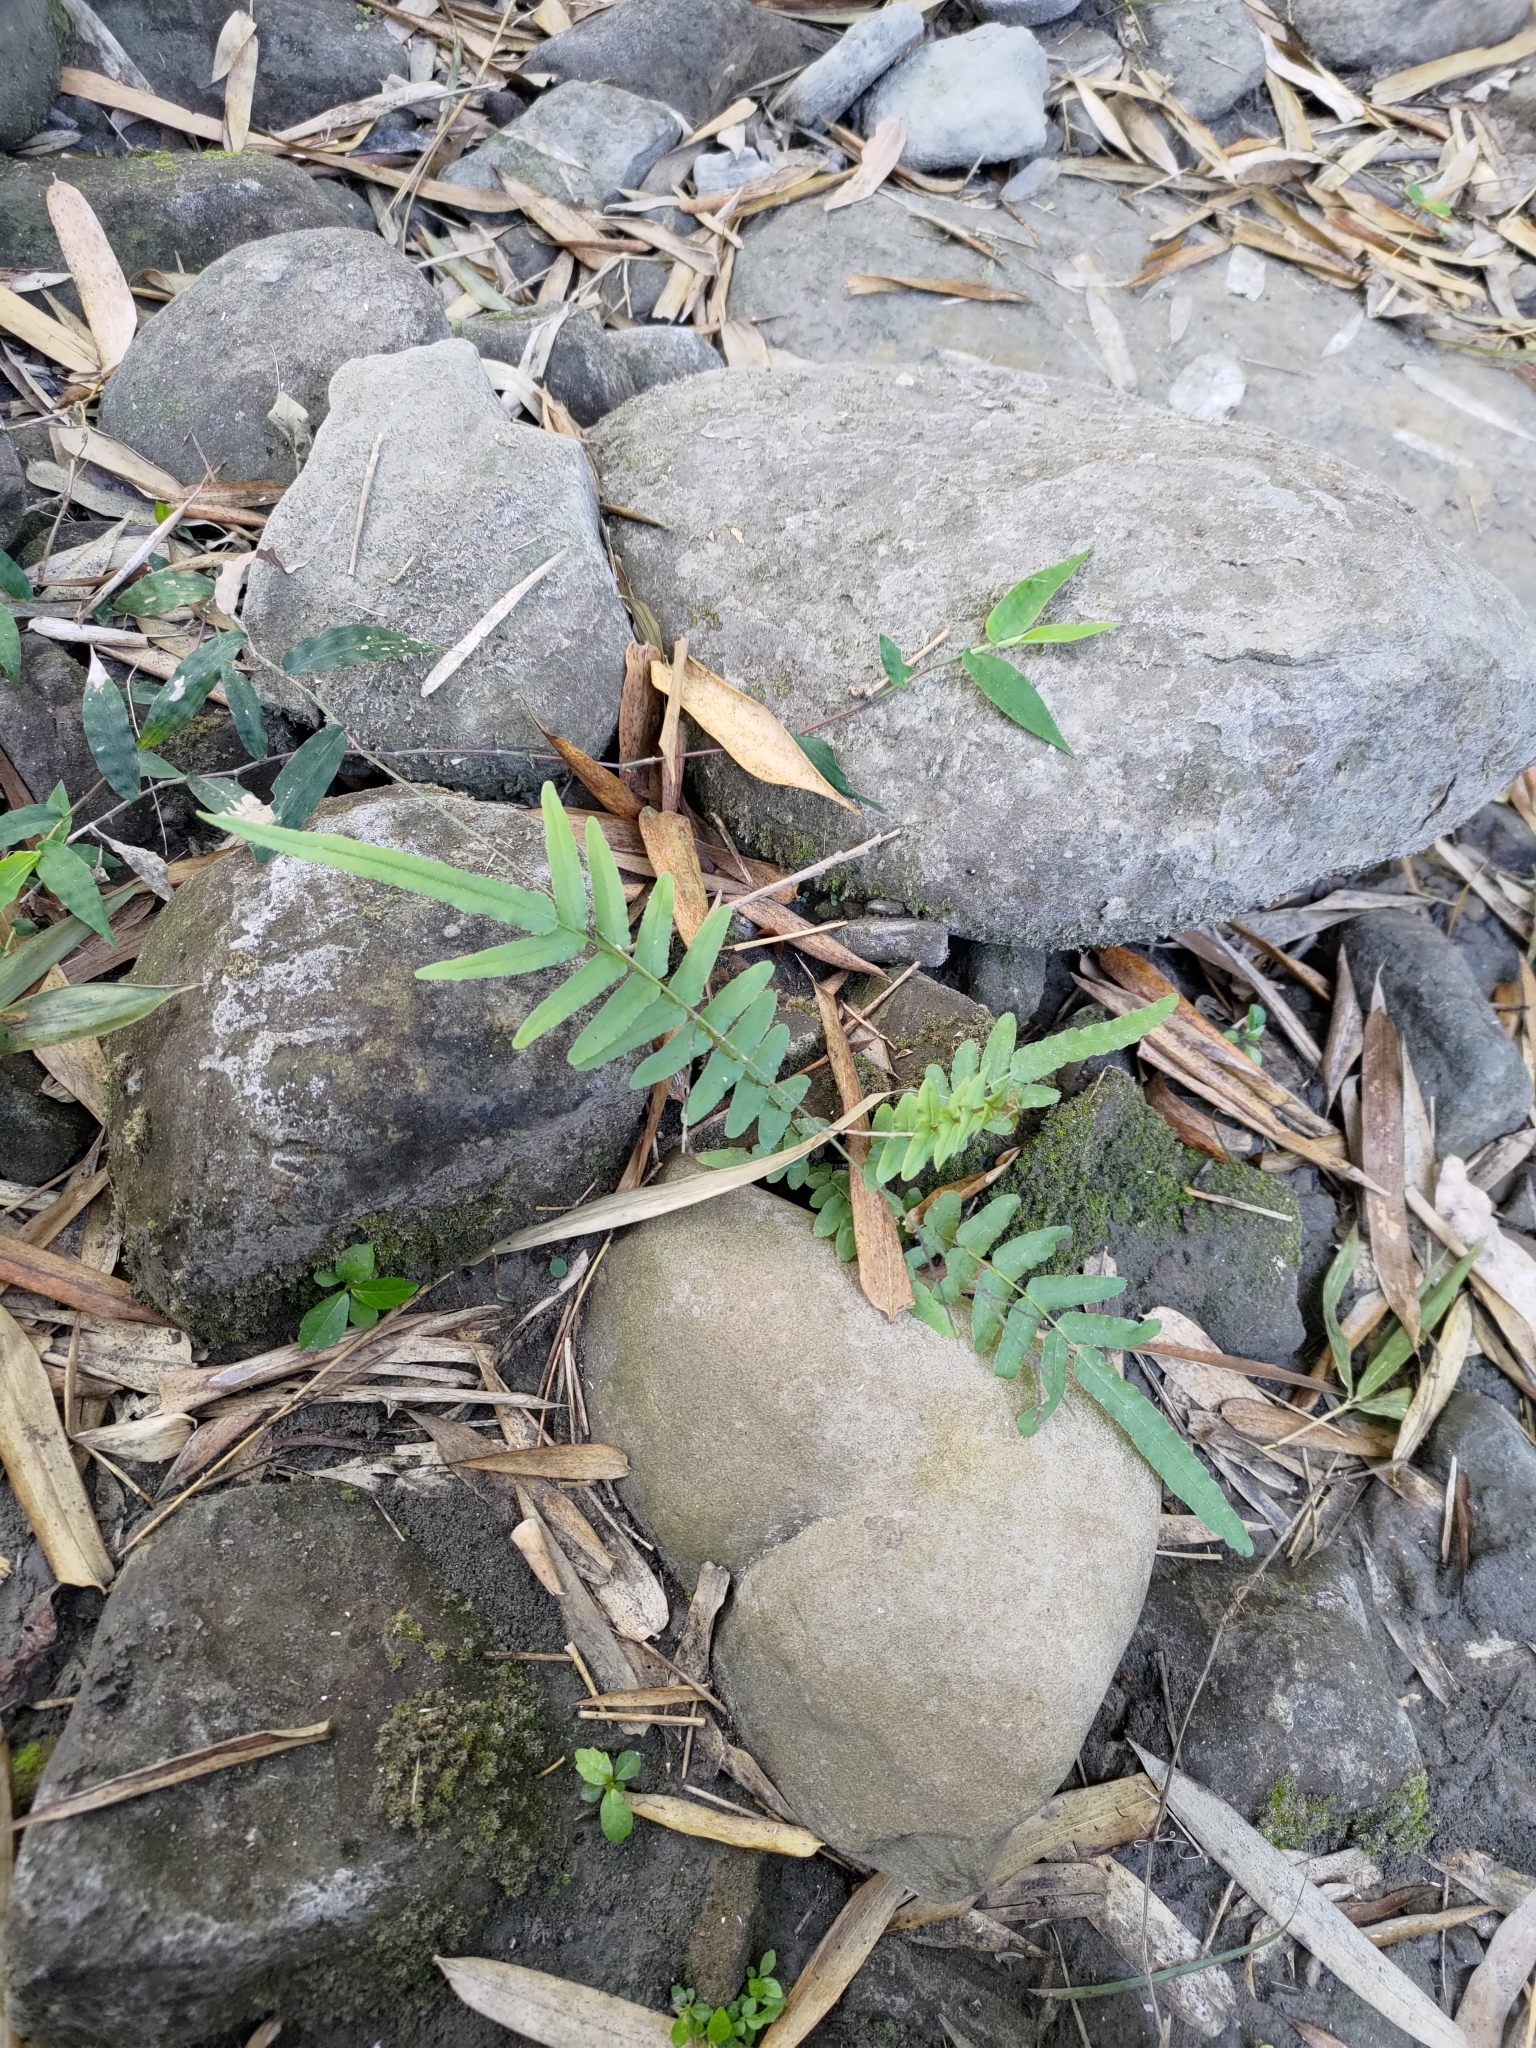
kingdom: Plantae
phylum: Tracheophyta
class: Polypodiopsida
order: Polypodiales
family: Pteridaceae
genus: Pteris
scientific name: Pteris vittata
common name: Ladder brake
